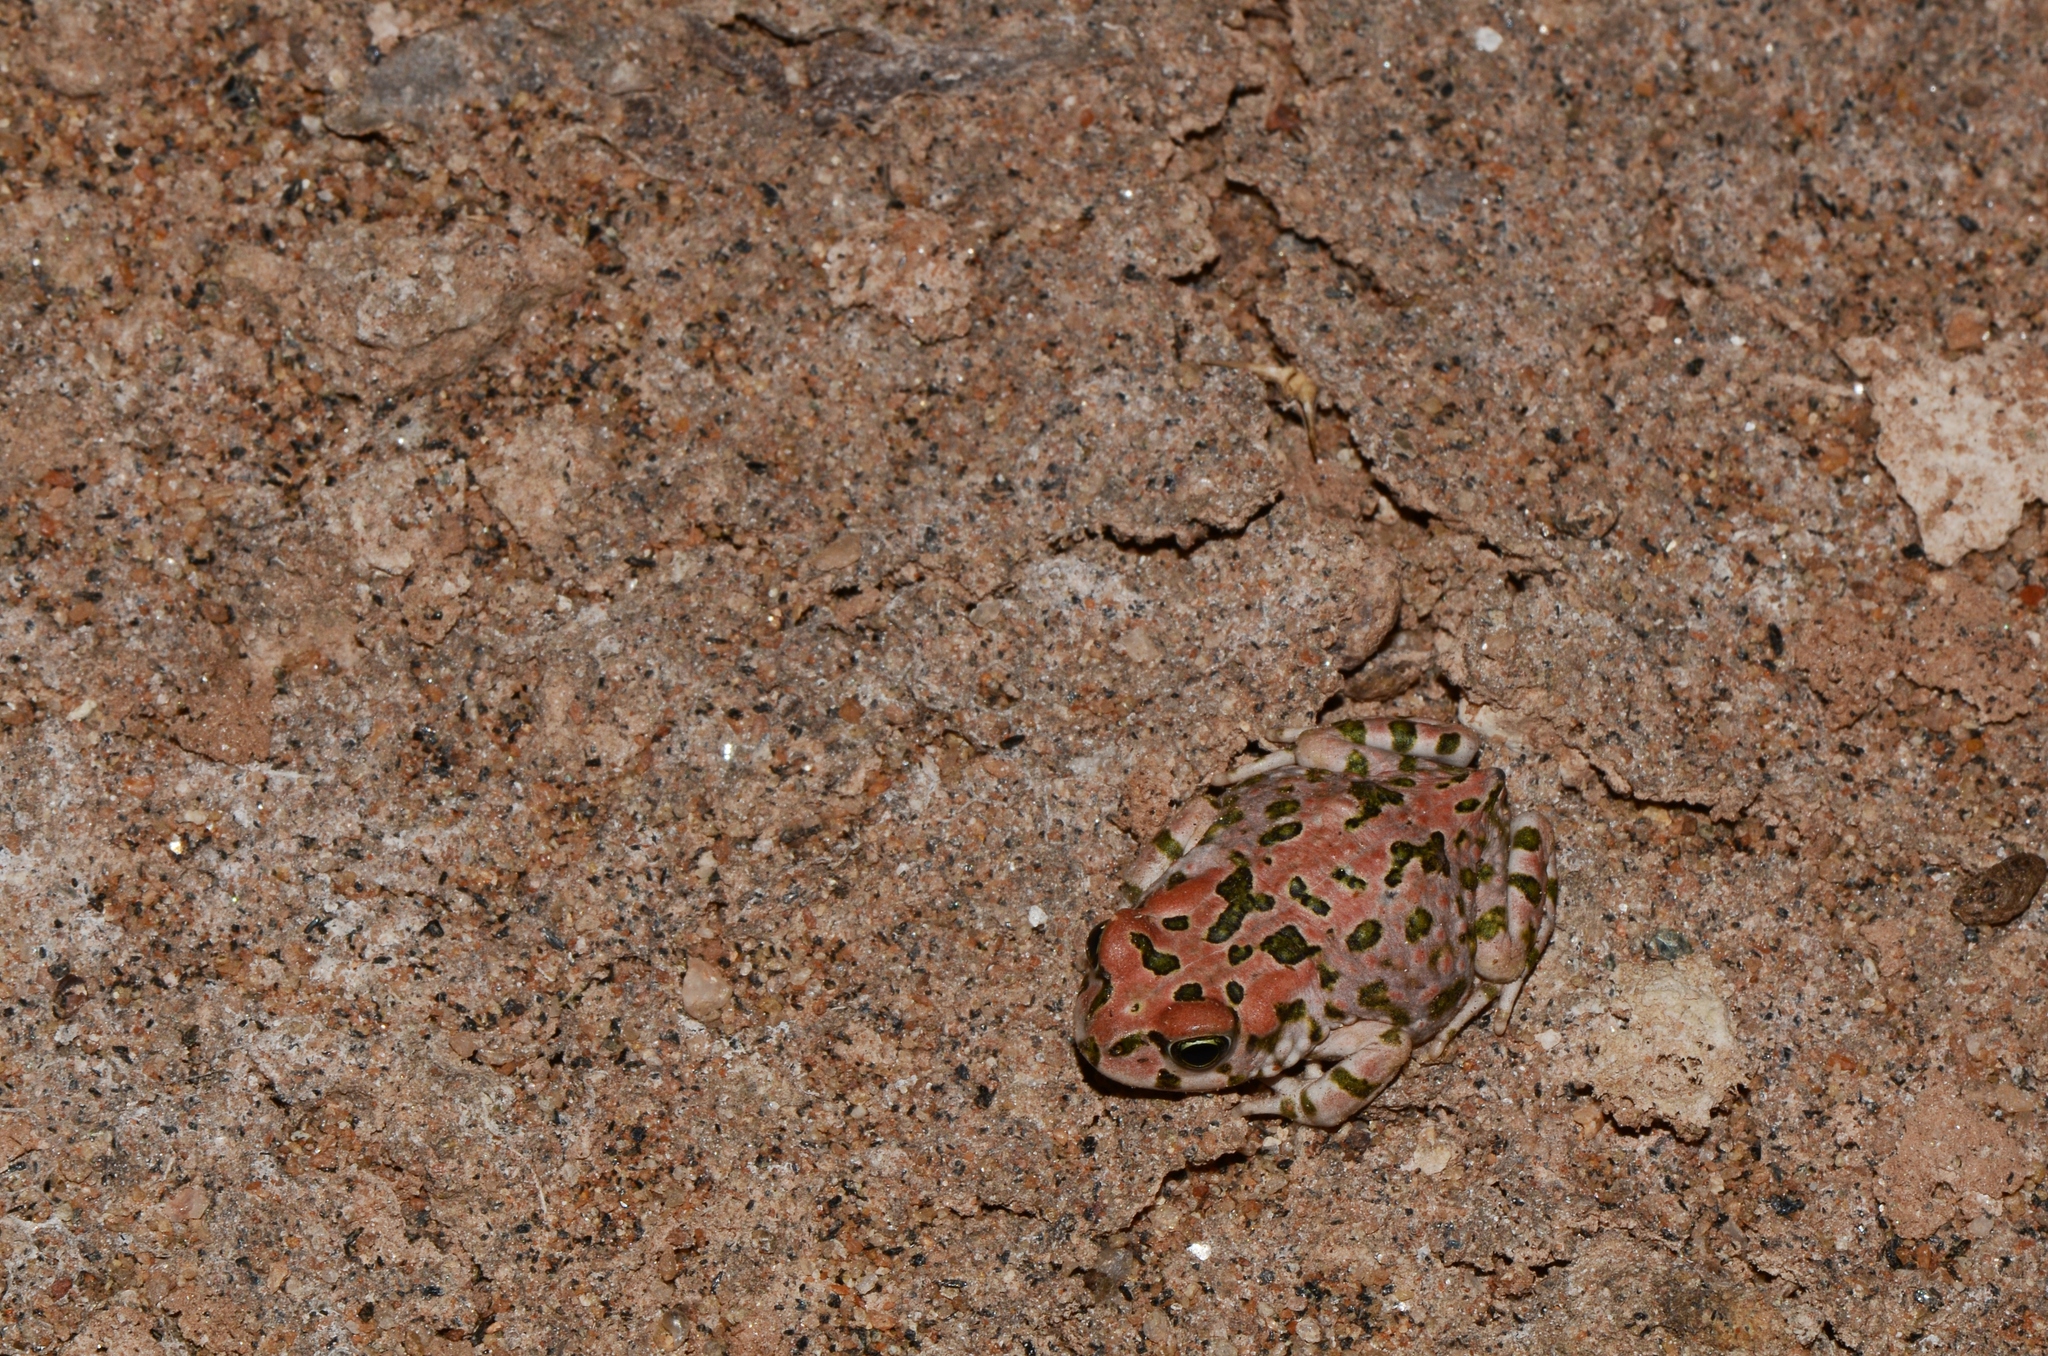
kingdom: Animalia
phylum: Chordata
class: Amphibia
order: Anura
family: Bufonidae
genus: Vandijkophrynus
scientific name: Vandijkophrynus robinsoni
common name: Paradise toad
